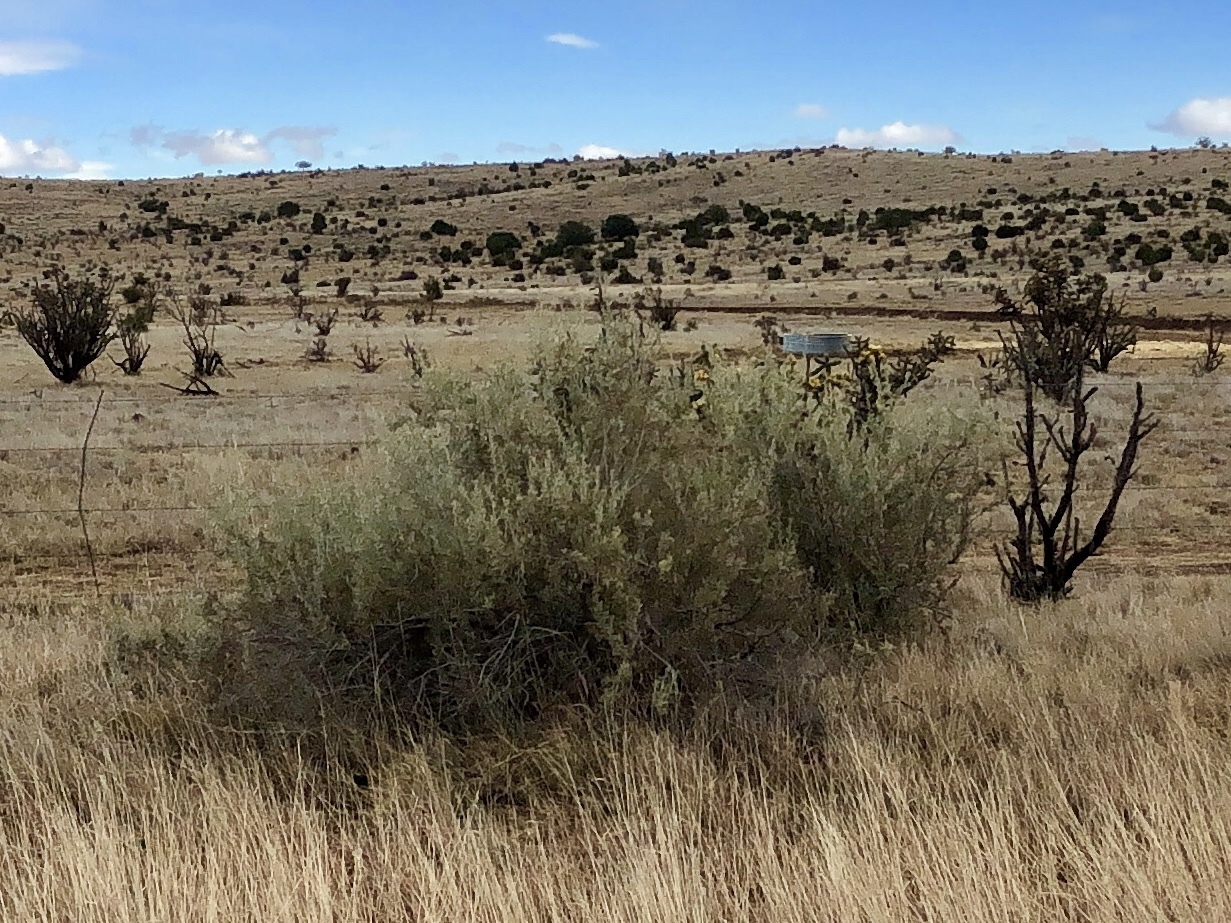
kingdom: Plantae
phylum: Tracheophyta
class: Magnoliopsida
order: Rosales
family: Rosaceae
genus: Fallugia
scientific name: Fallugia paradoxa
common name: Apache-plume
